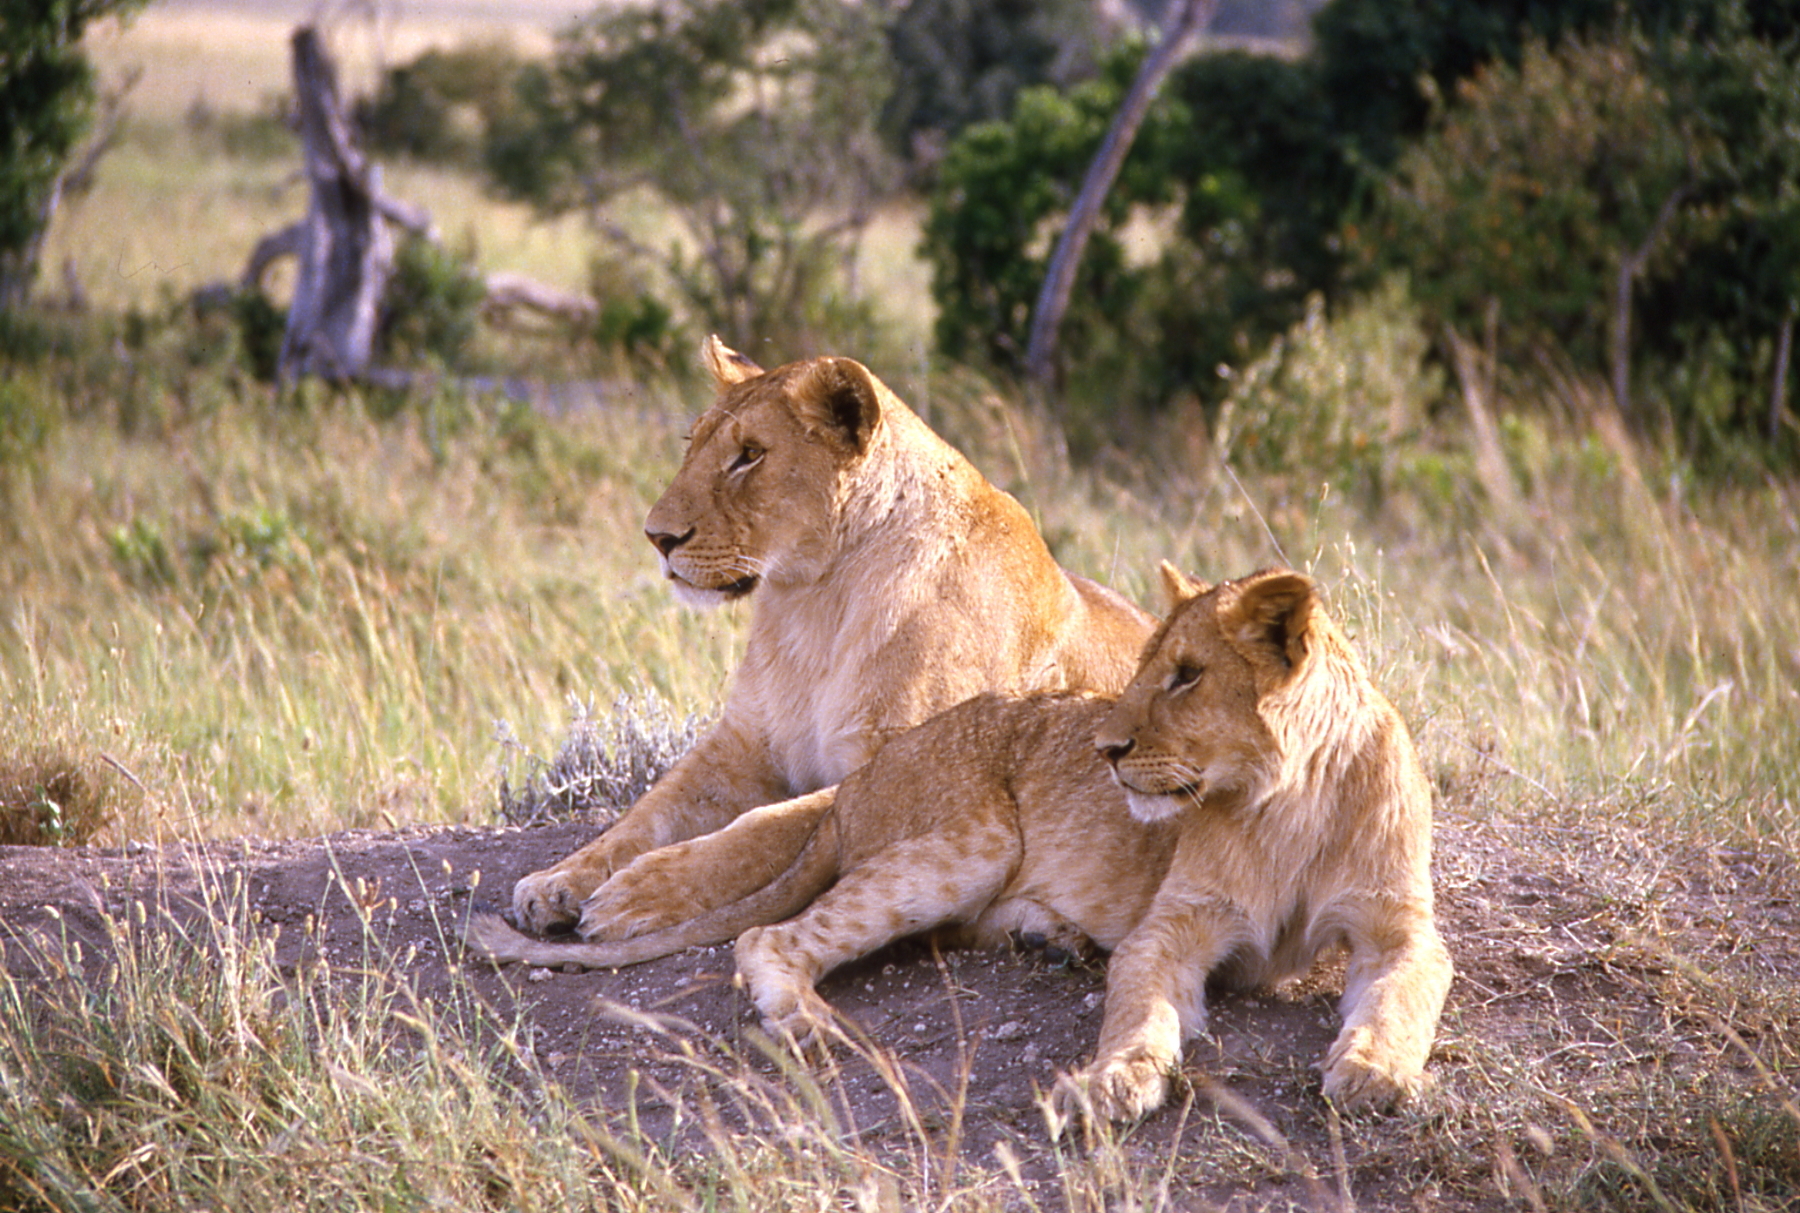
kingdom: Animalia
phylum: Chordata
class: Mammalia
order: Carnivora
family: Felidae
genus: Panthera
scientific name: Panthera leo
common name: Lion
